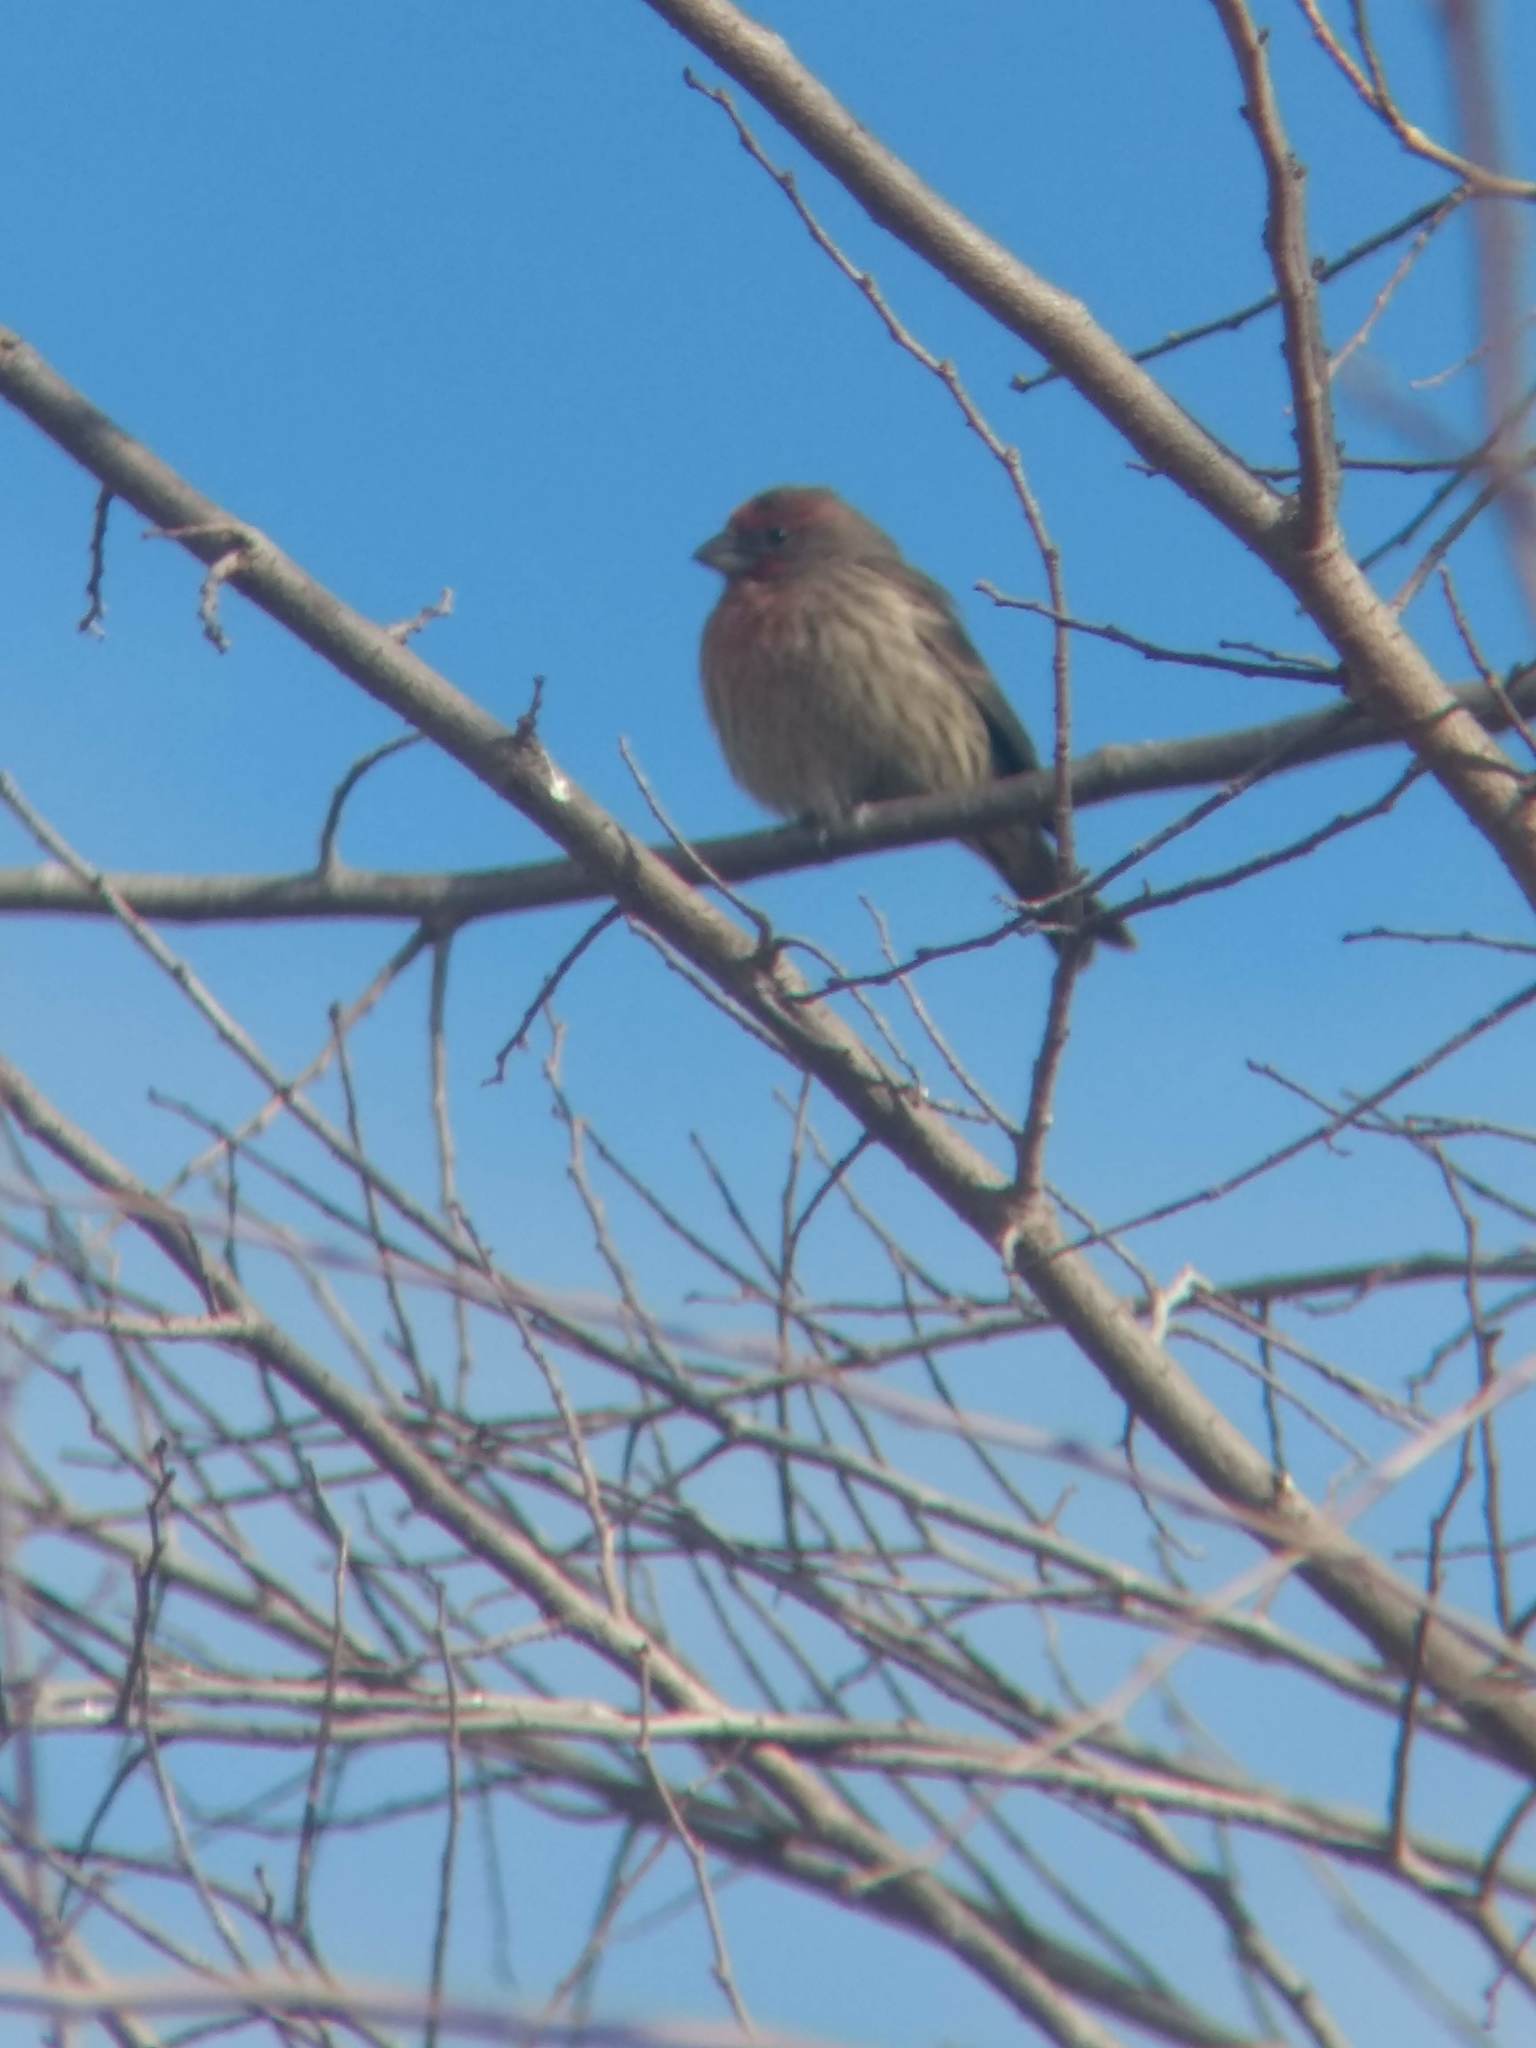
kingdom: Animalia
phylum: Chordata
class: Aves
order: Passeriformes
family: Fringillidae
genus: Haemorhous
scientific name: Haemorhous mexicanus
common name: House finch
